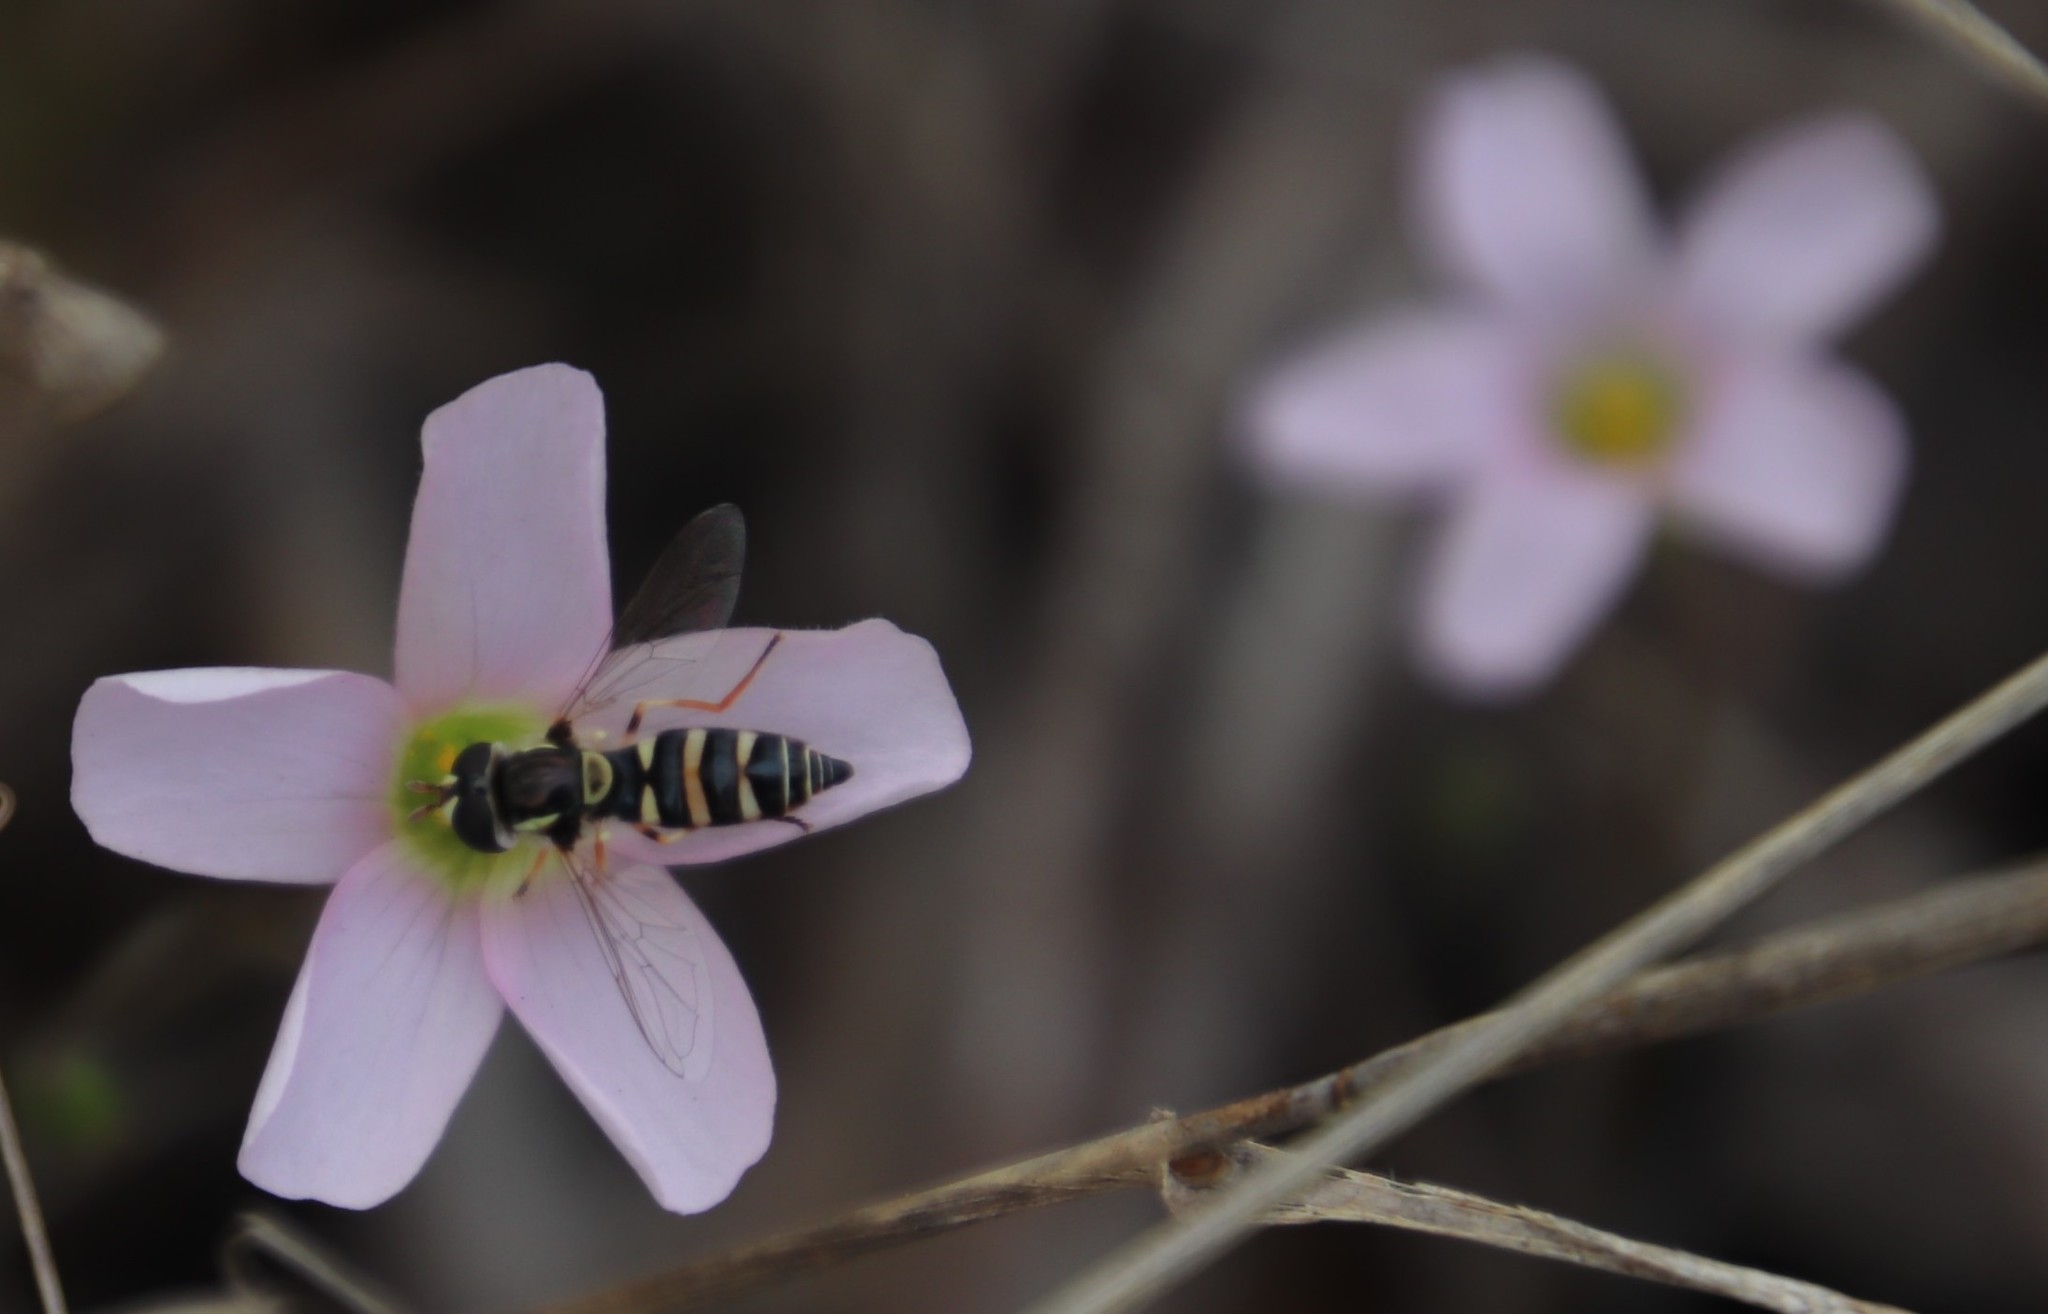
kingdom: Animalia
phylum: Arthropoda
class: Insecta
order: Diptera
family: Syrphidae
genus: Ischiodon
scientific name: Ischiodon aegyptius
